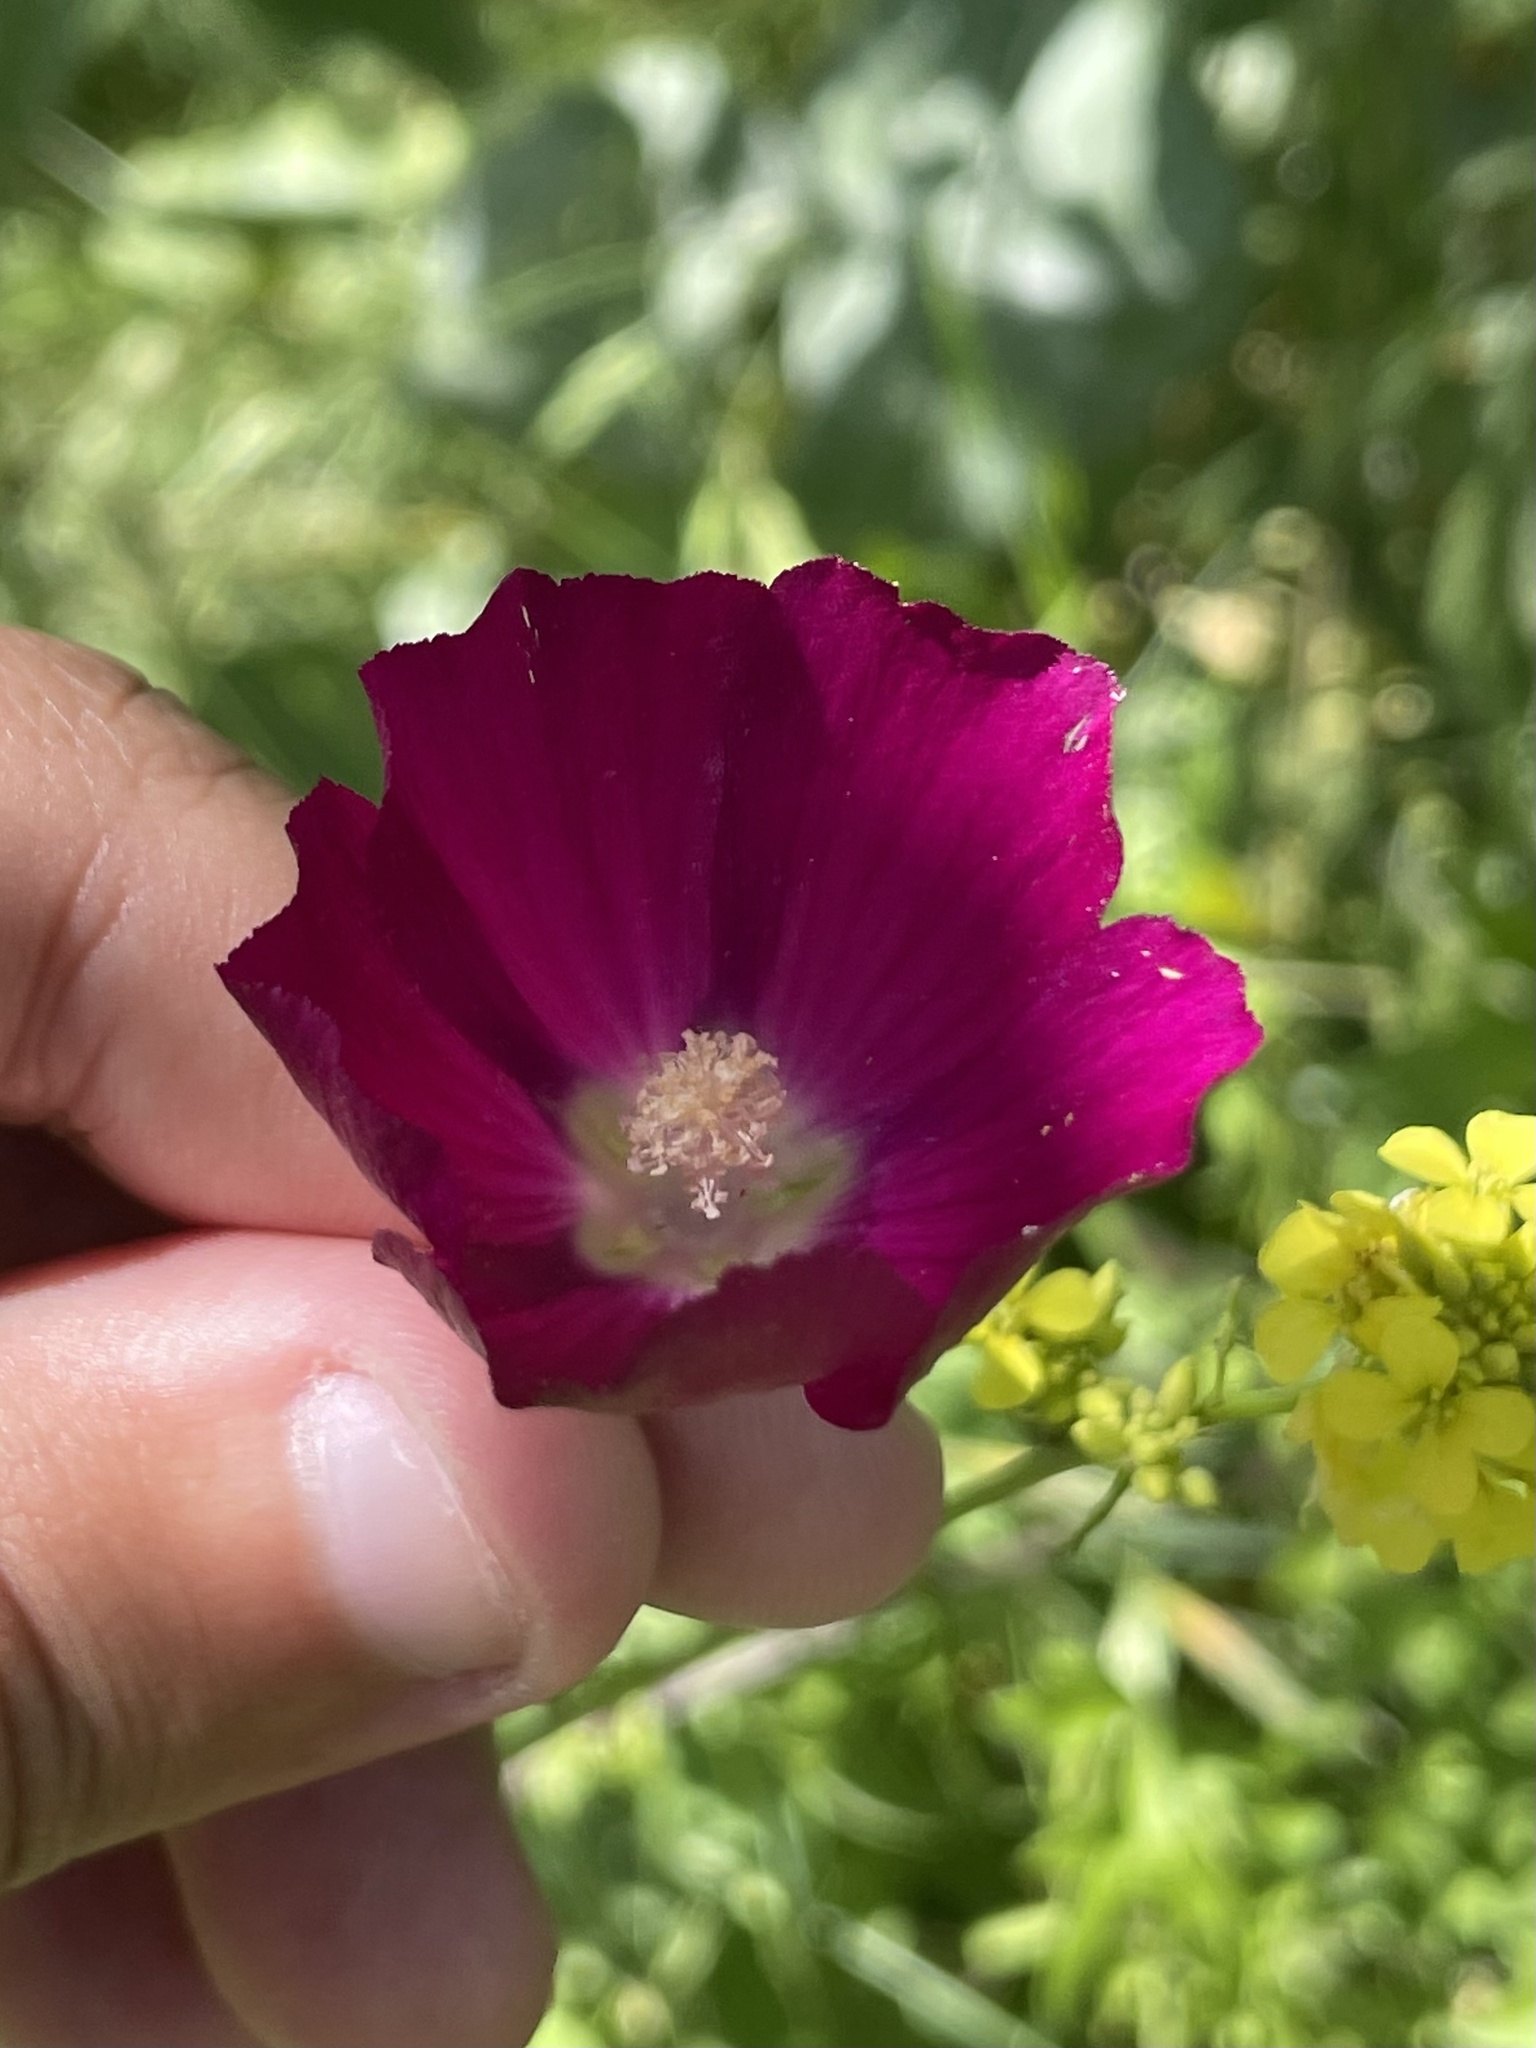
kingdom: Plantae
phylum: Tracheophyta
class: Magnoliopsida
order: Malvales
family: Malvaceae
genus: Callirhoe
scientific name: Callirhoe leiocarpa
